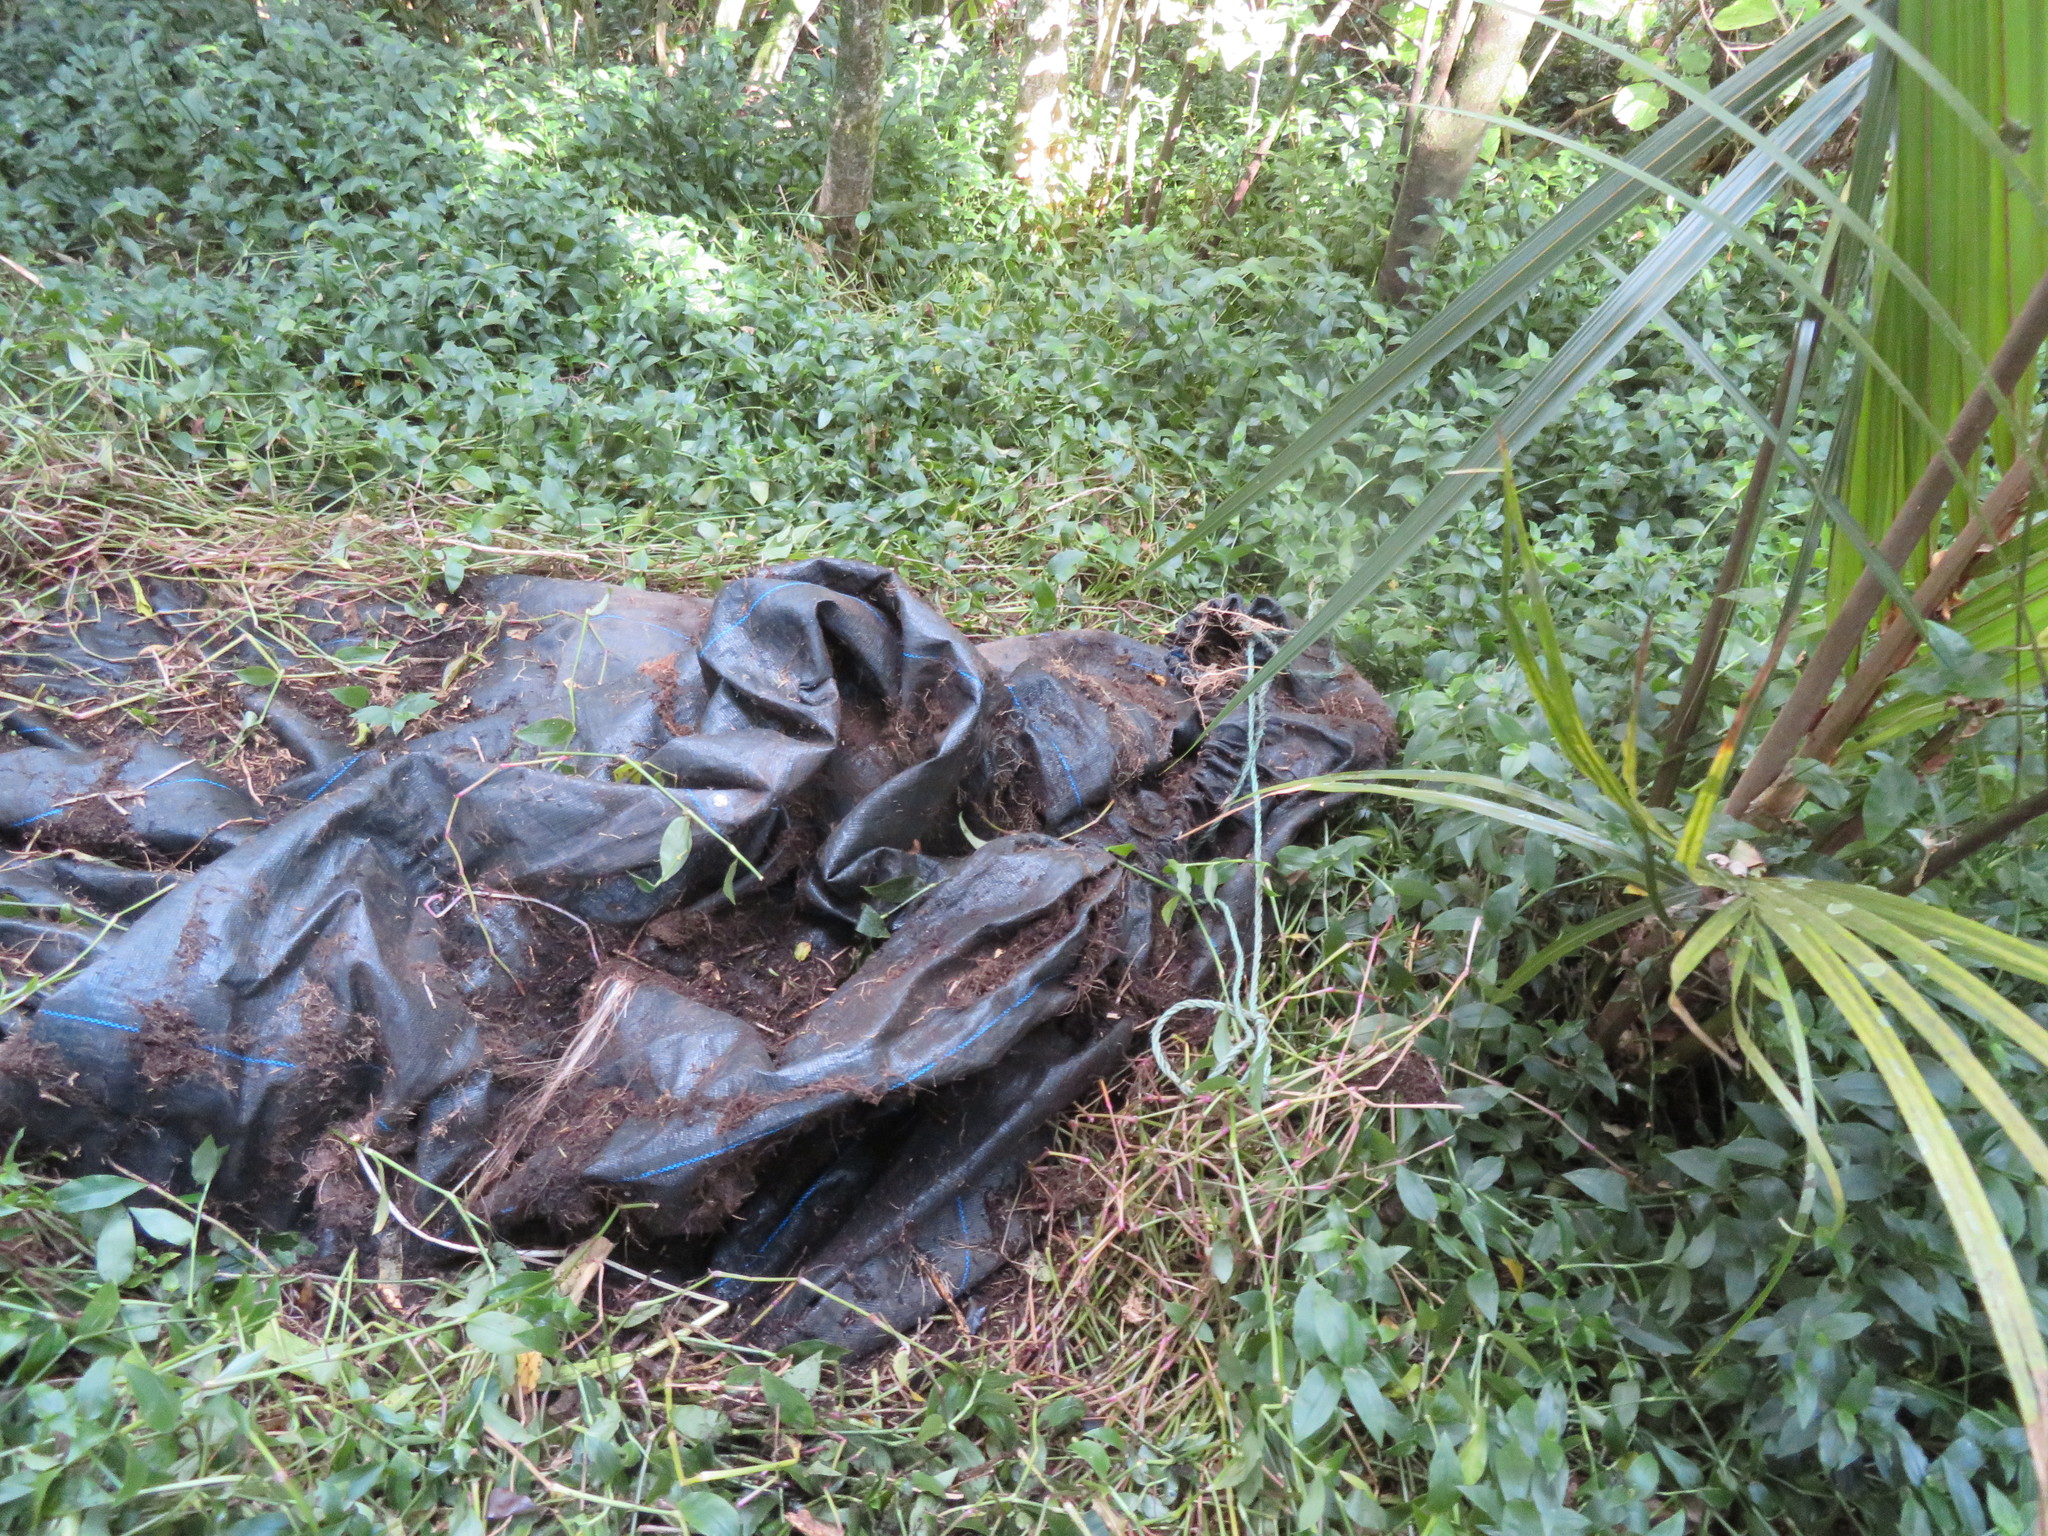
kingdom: Plantae
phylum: Tracheophyta
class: Liliopsida
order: Commelinales
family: Commelinaceae
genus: Tradescantia
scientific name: Tradescantia fluminensis
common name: Wandering-jew
